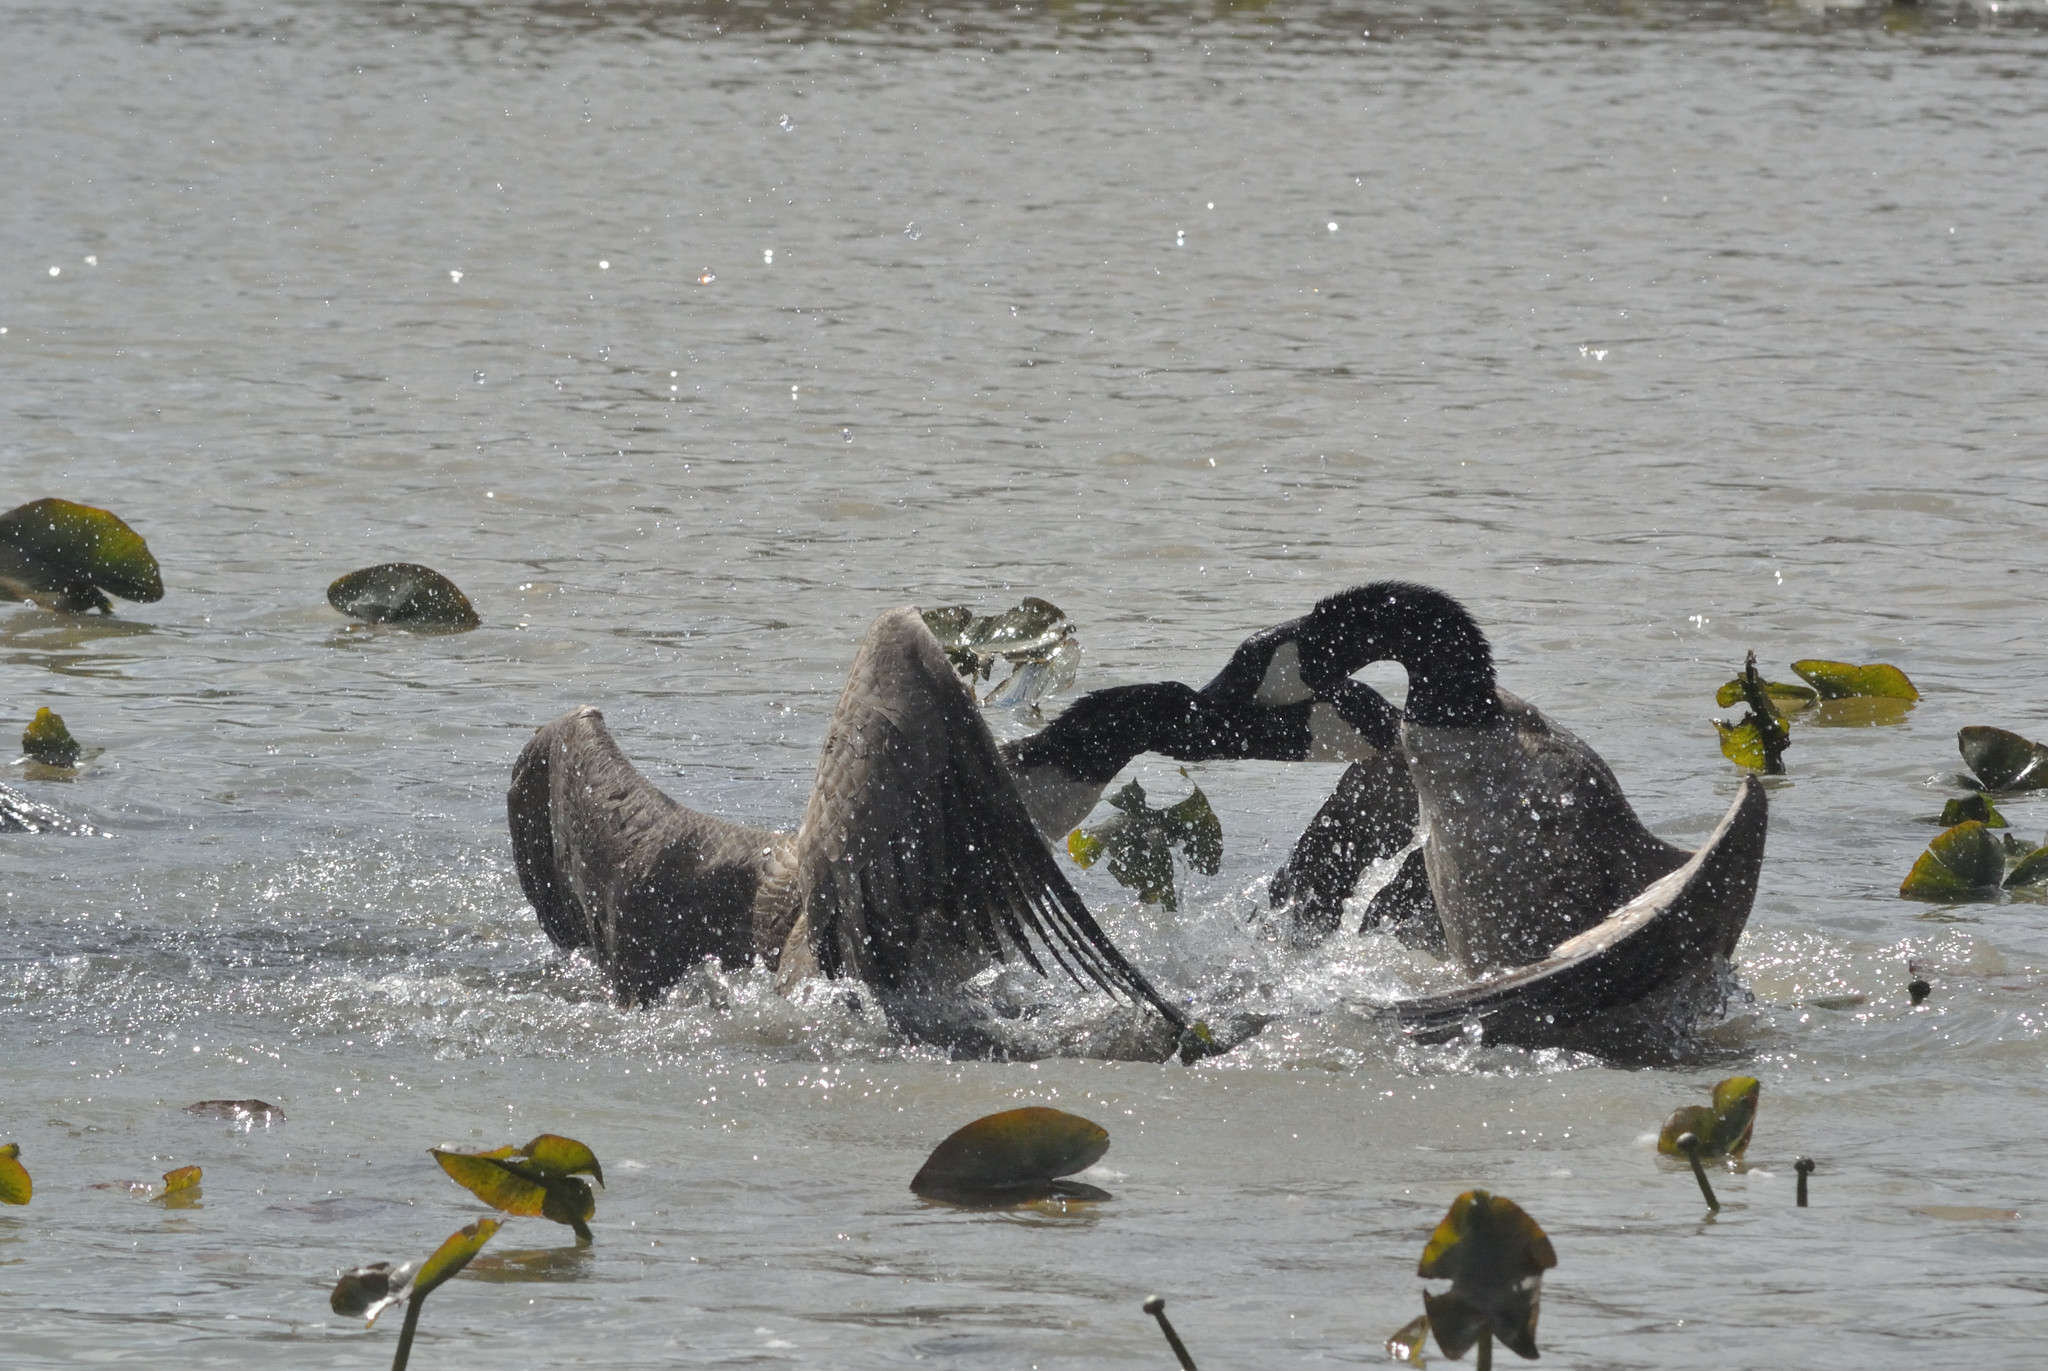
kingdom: Animalia
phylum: Chordata
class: Aves
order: Anseriformes
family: Anatidae
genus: Branta
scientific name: Branta canadensis
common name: Canada goose
